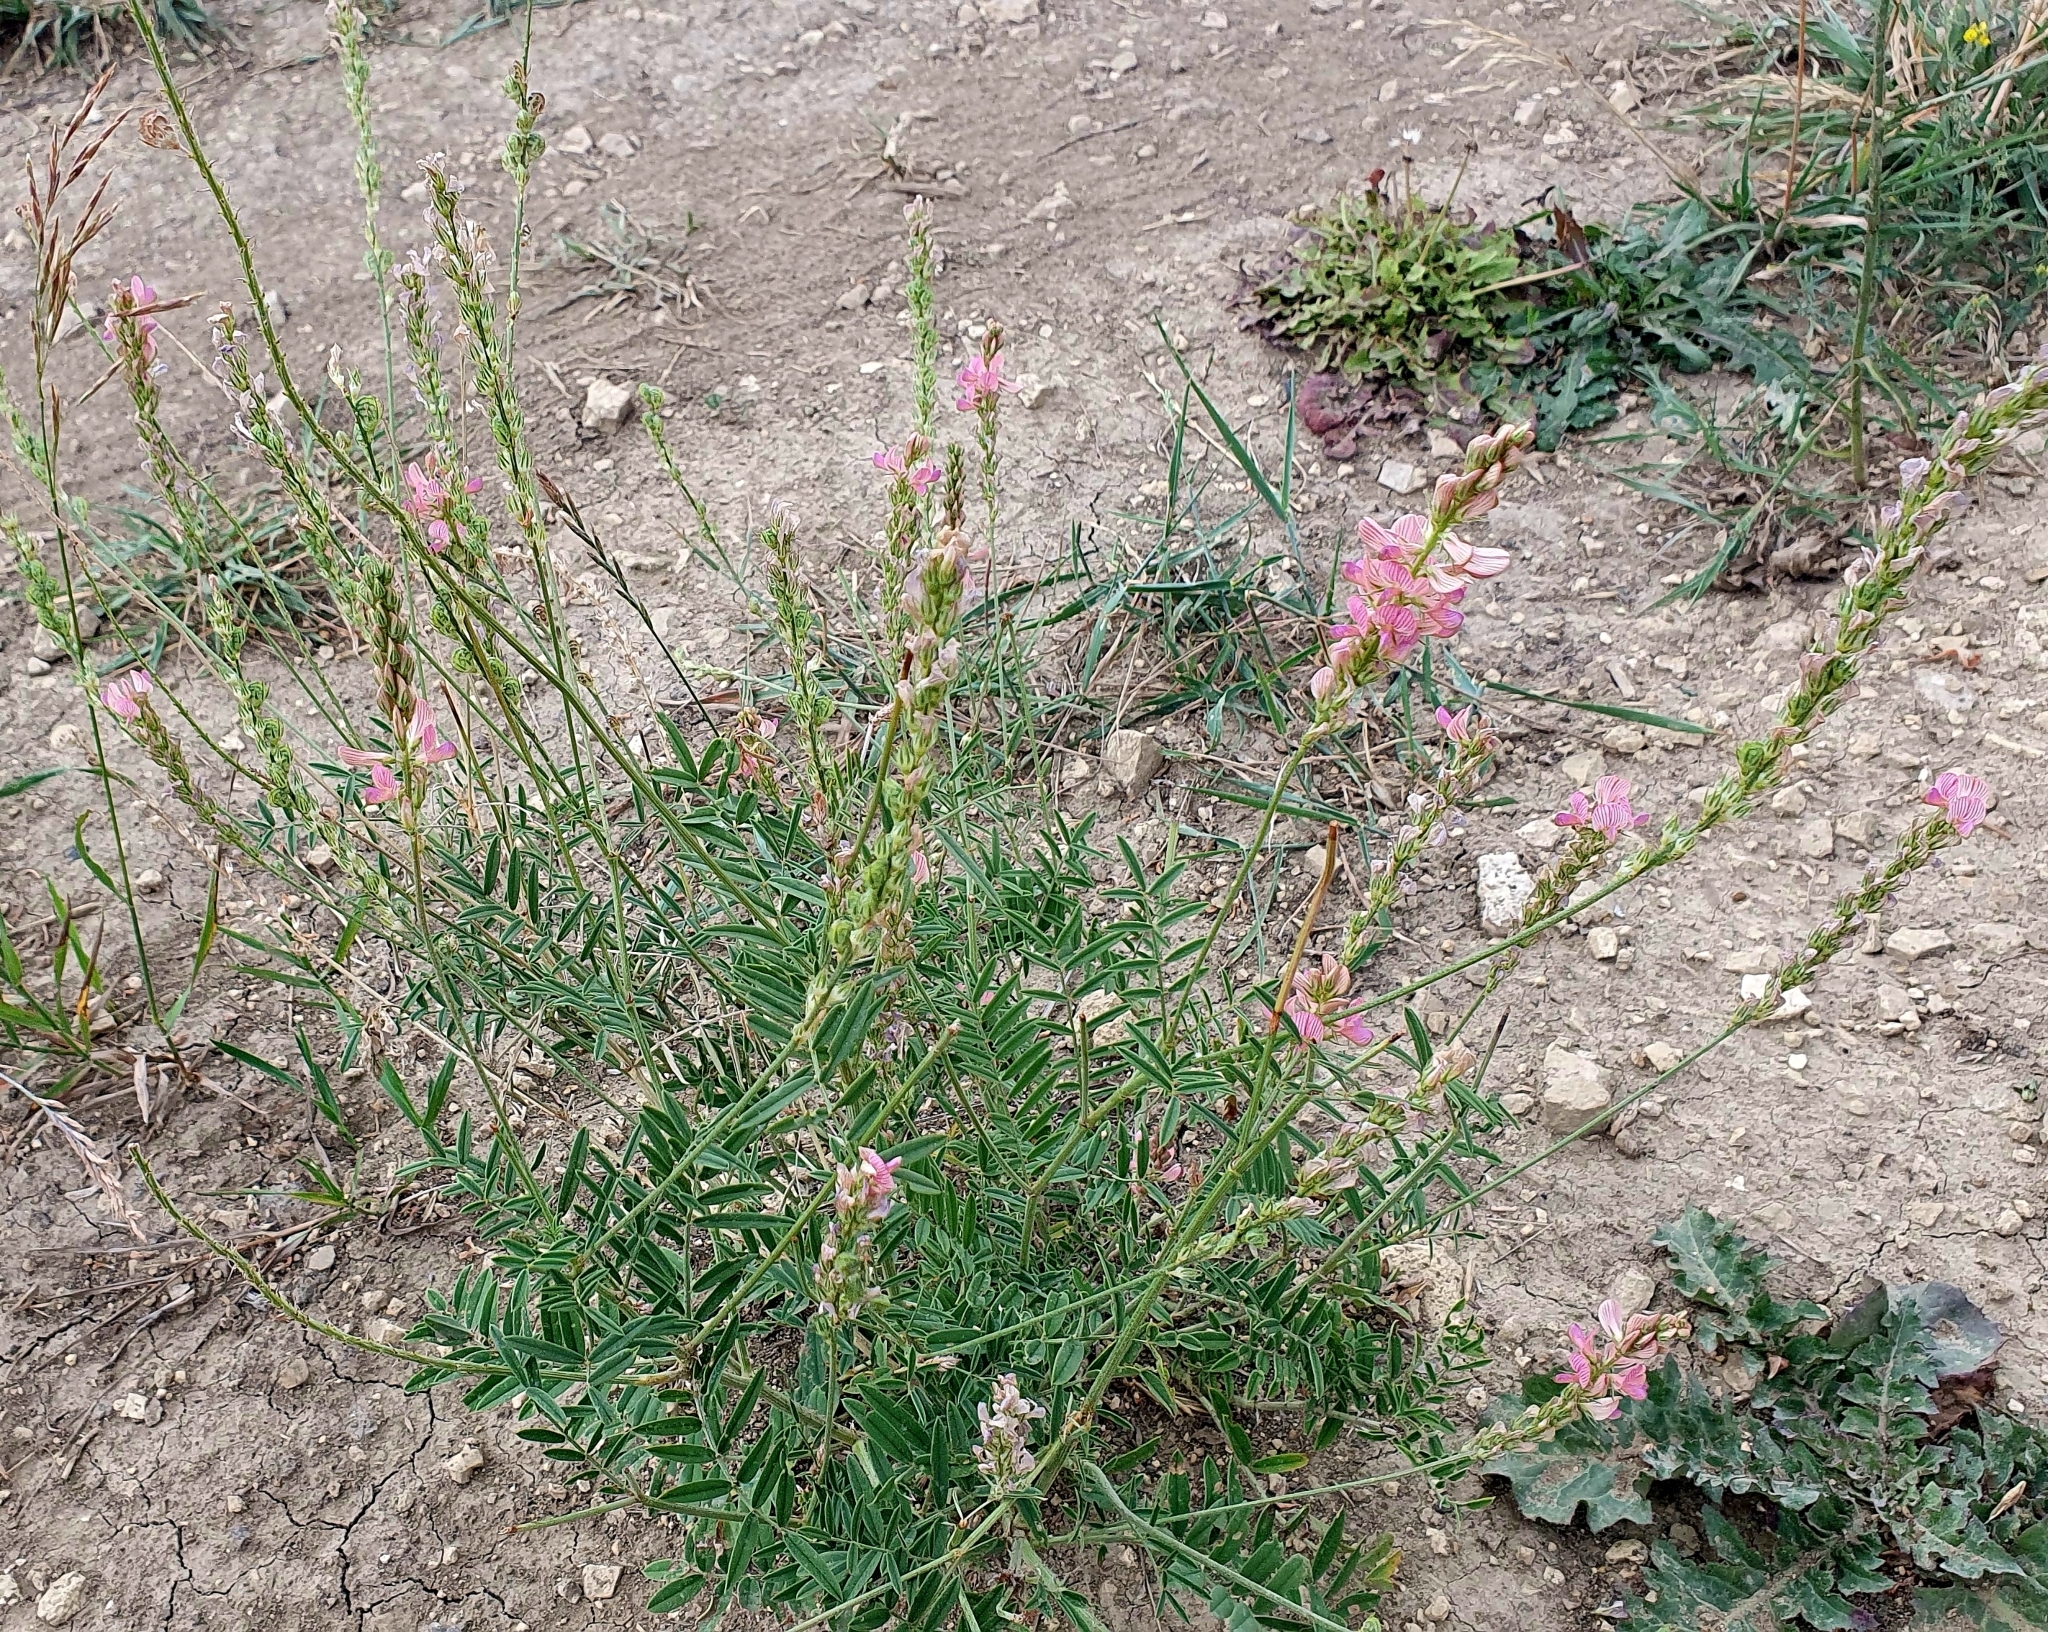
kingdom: Plantae
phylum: Tracheophyta
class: Magnoliopsida
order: Fabales
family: Fabaceae
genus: Onobrychis
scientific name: Onobrychis arenaria
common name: Sand esparcet
